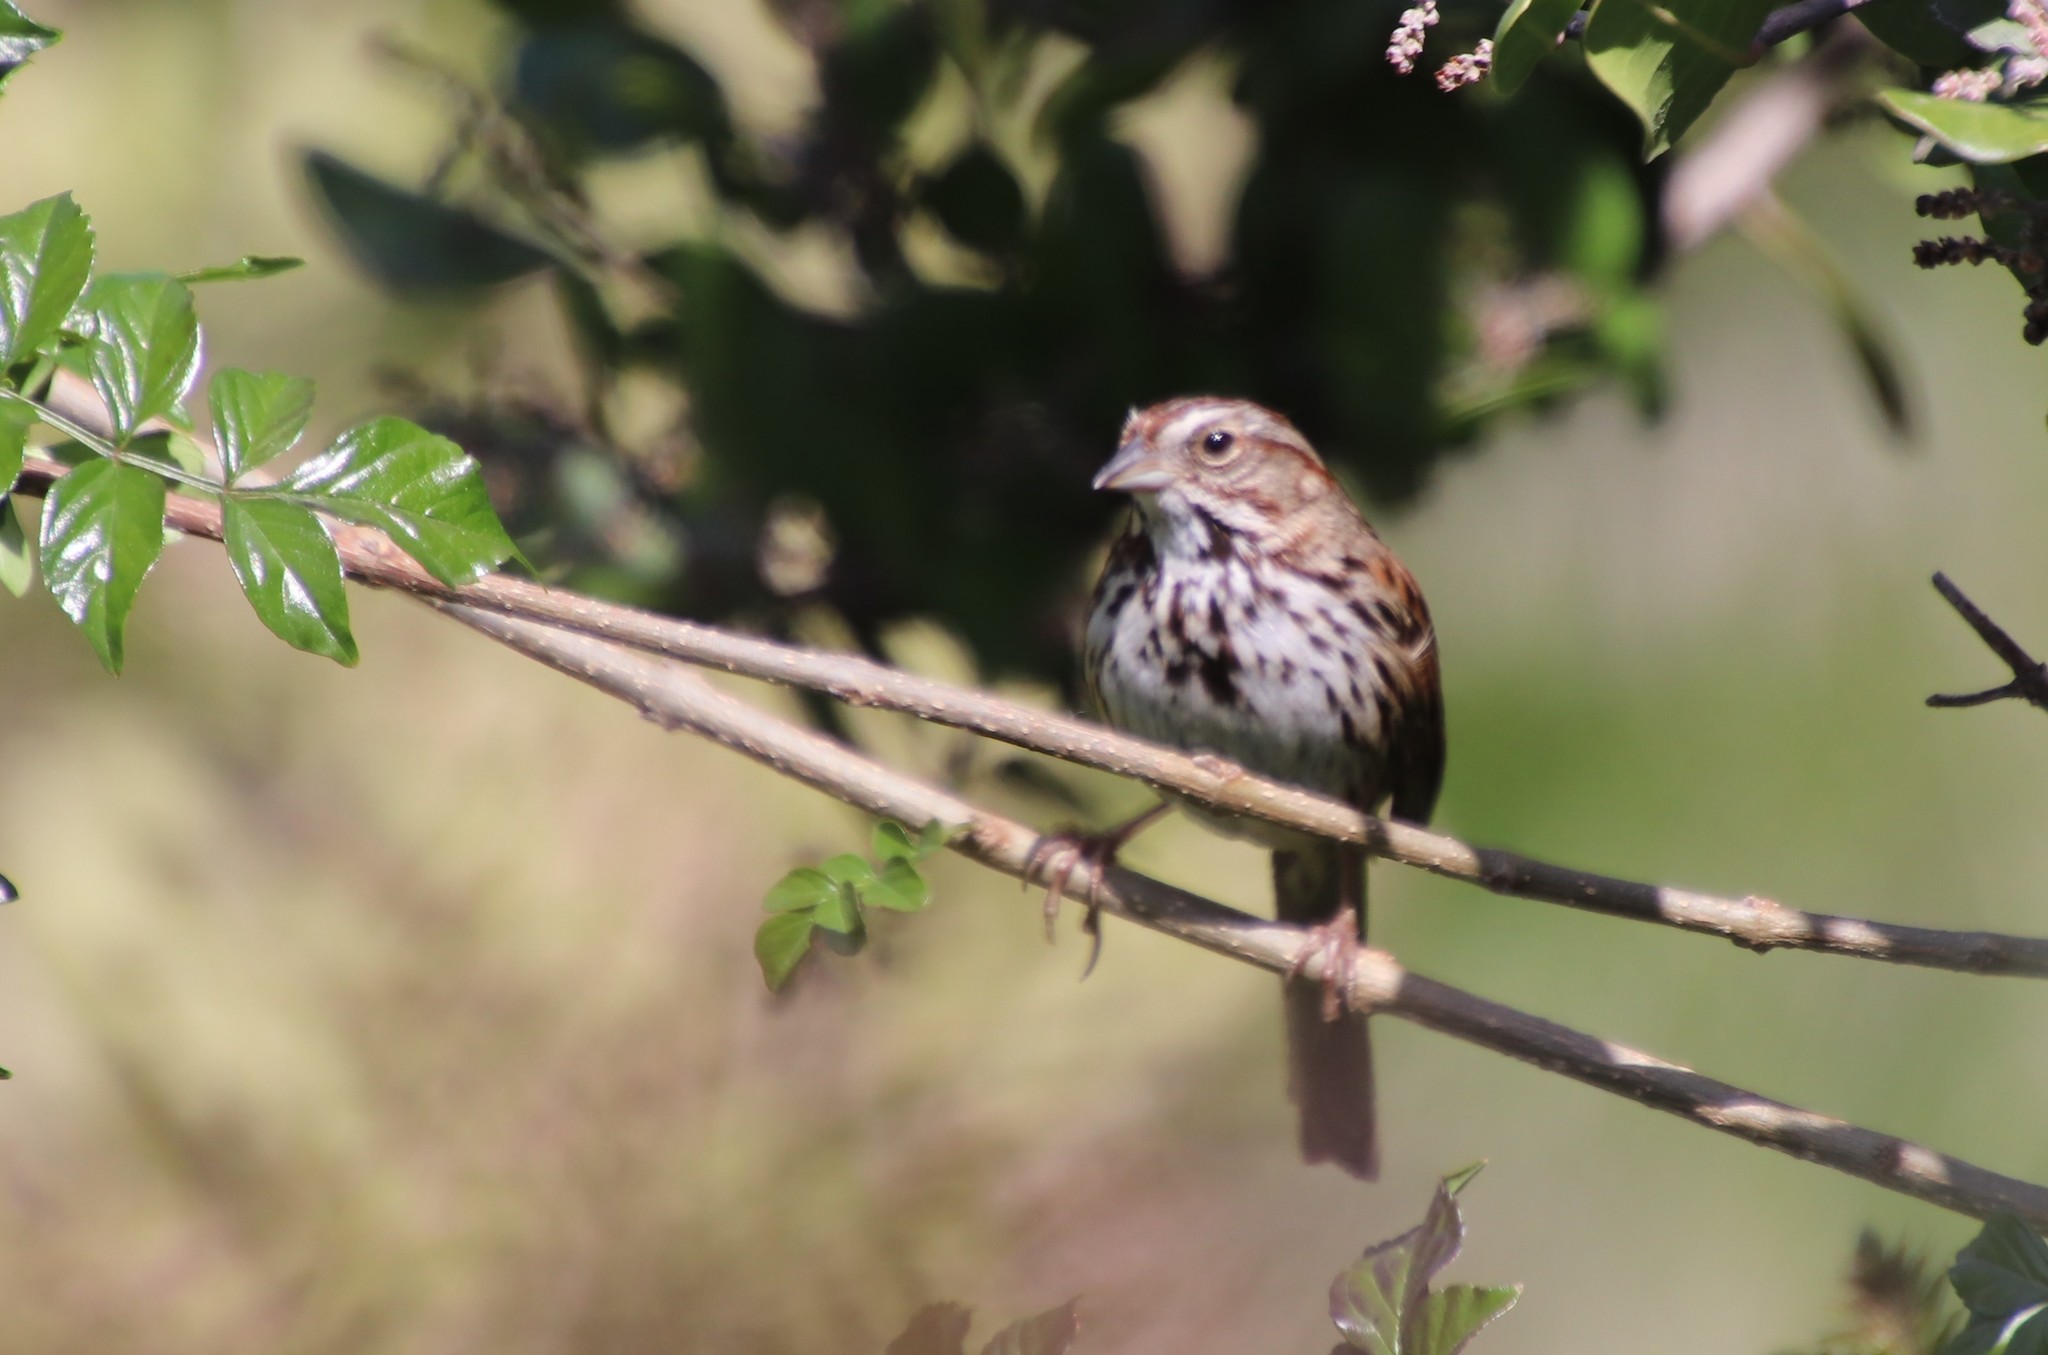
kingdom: Animalia
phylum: Chordata
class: Aves
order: Passeriformes
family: Passerellidae
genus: Melospiza
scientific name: Melospiza melodia
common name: Song sparrow
